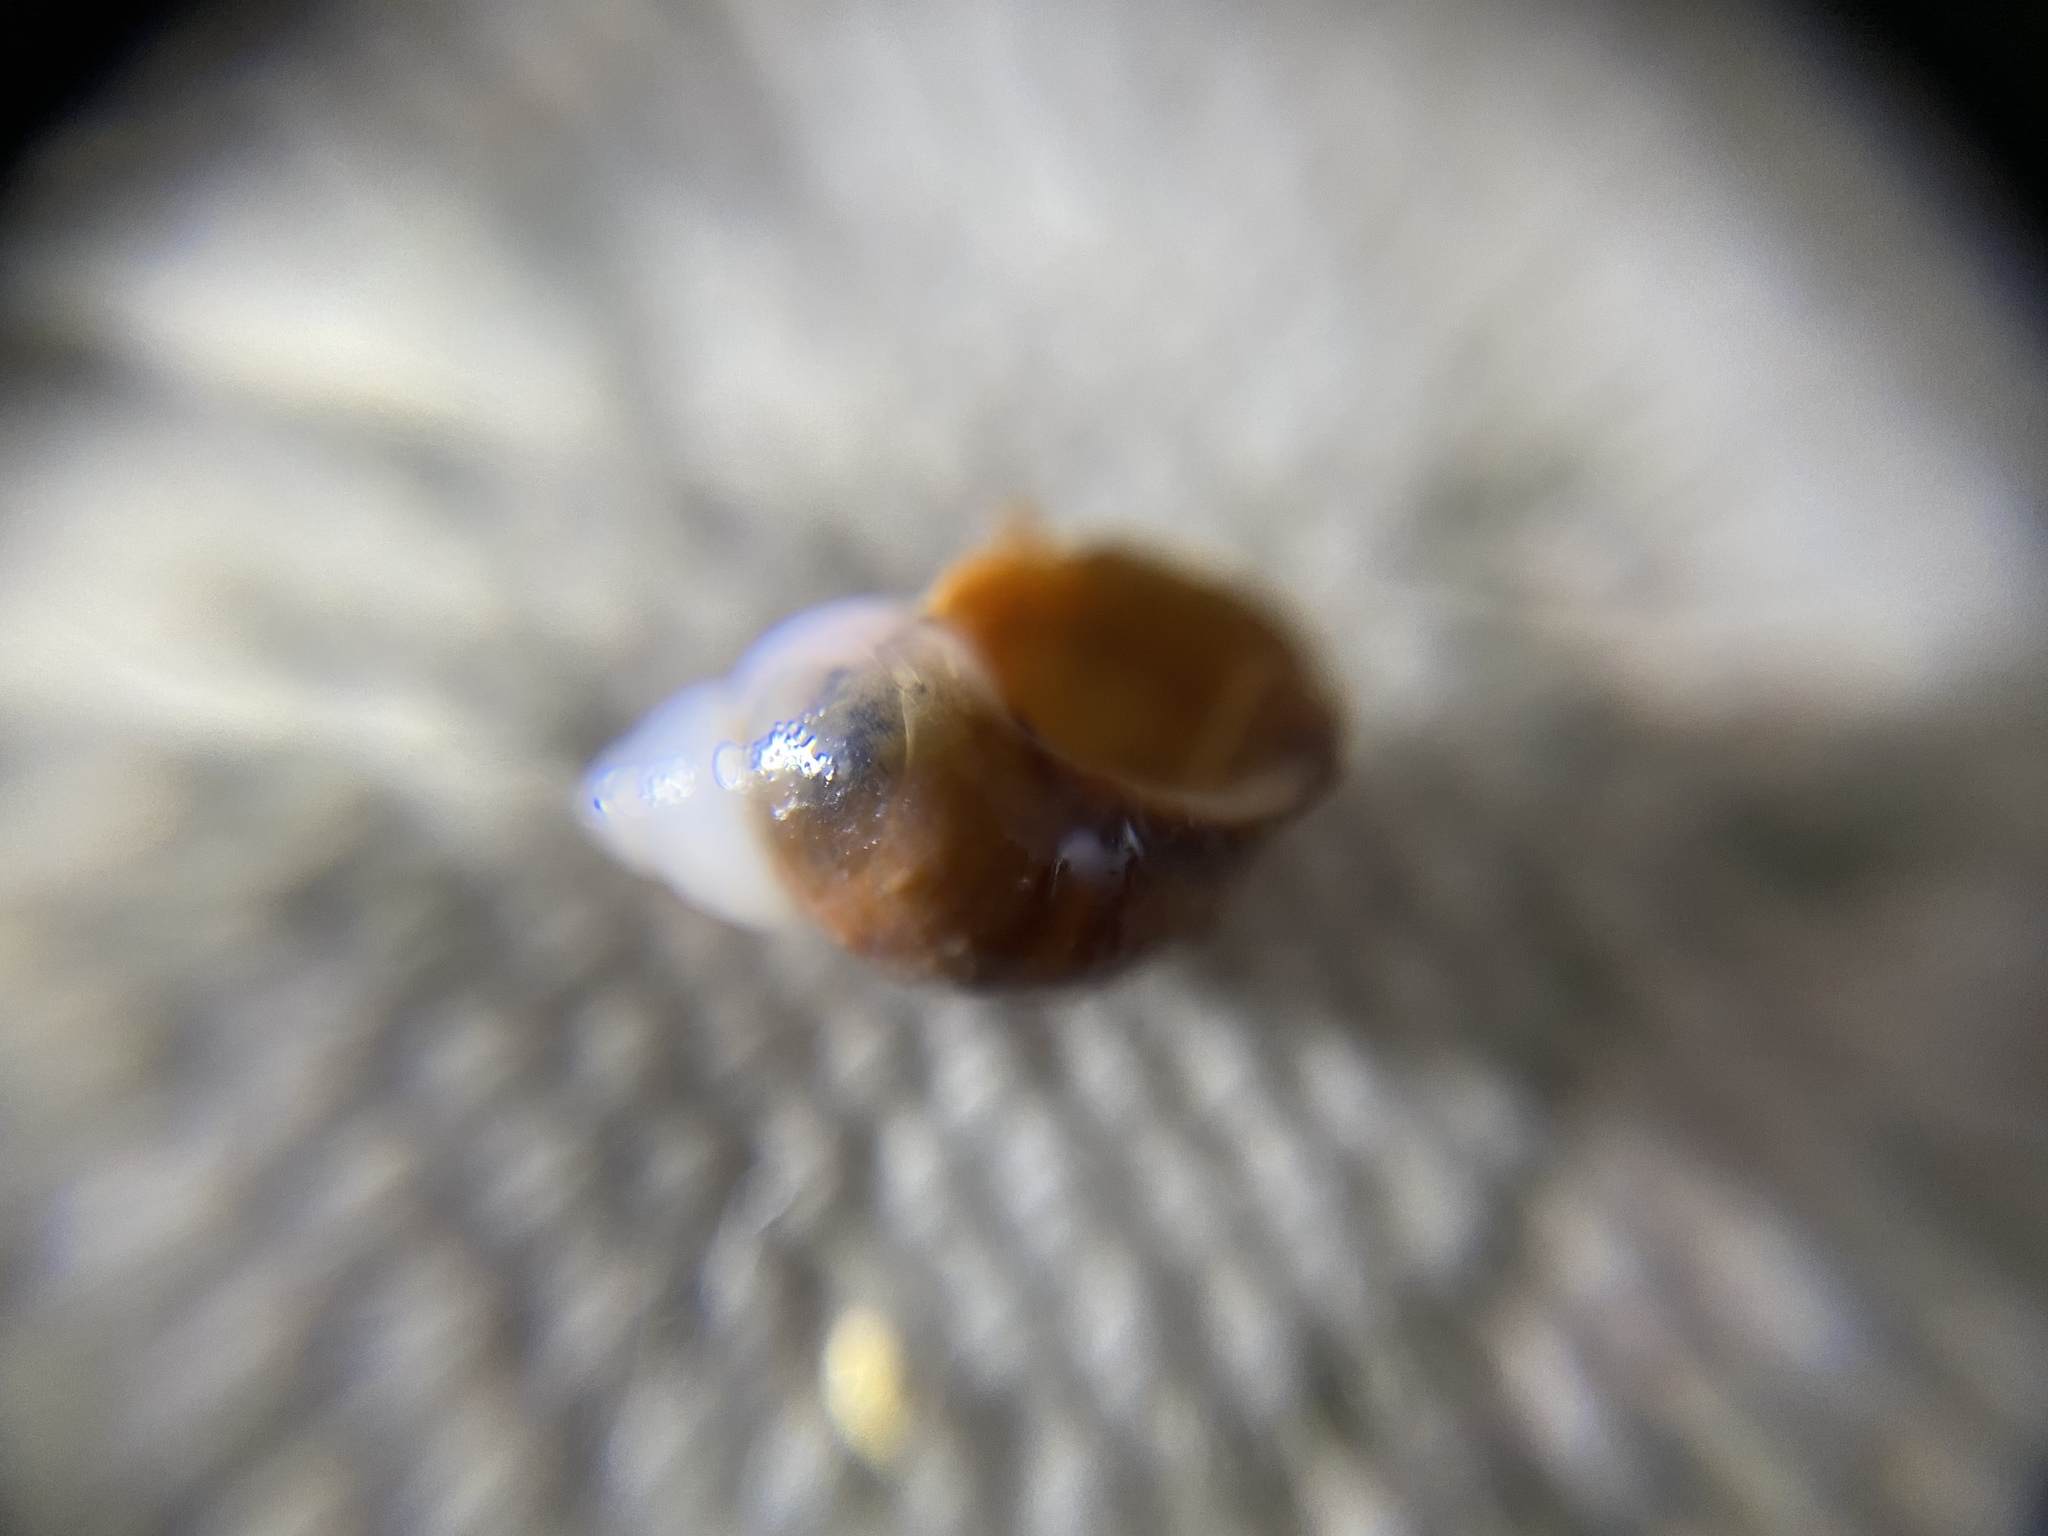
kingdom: Animalia
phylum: Mollusca
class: Gastropoda
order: Littorinimorpha
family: Littorinidae
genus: Lacuna
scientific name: Lacuna vincta
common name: Banded chink shell
